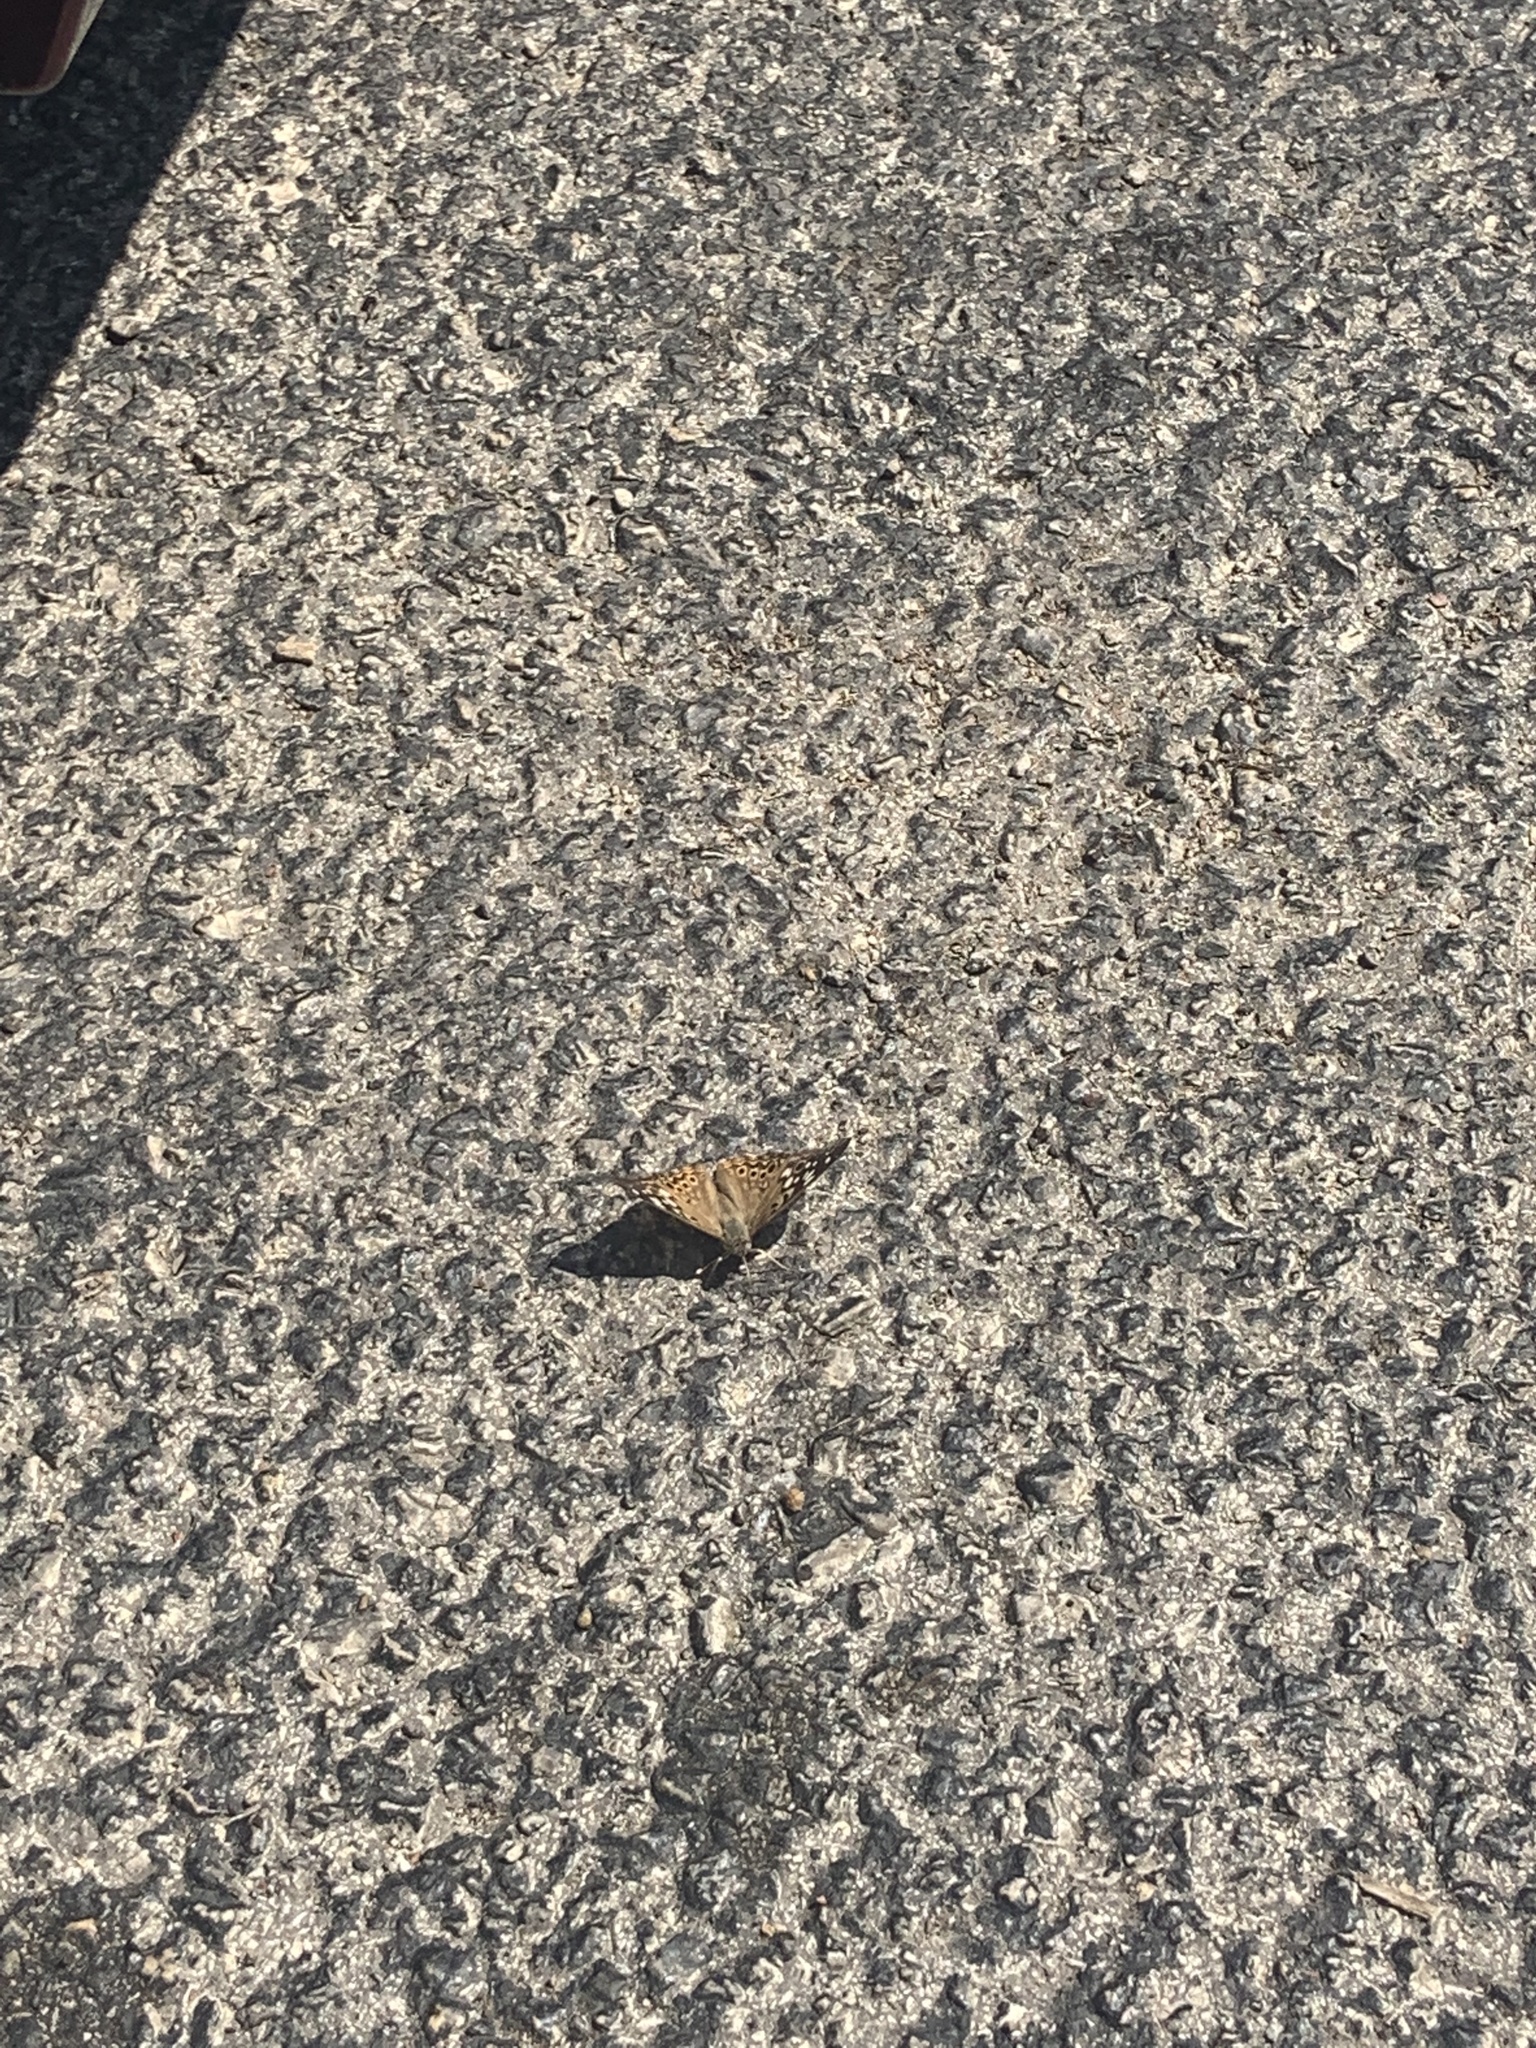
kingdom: Animalia
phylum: Arthropoda
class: Insecta
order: Lepidoptera
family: Nymphalidae
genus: Asterocampa
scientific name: Asterocampa celtis
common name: Hackberry emperor
